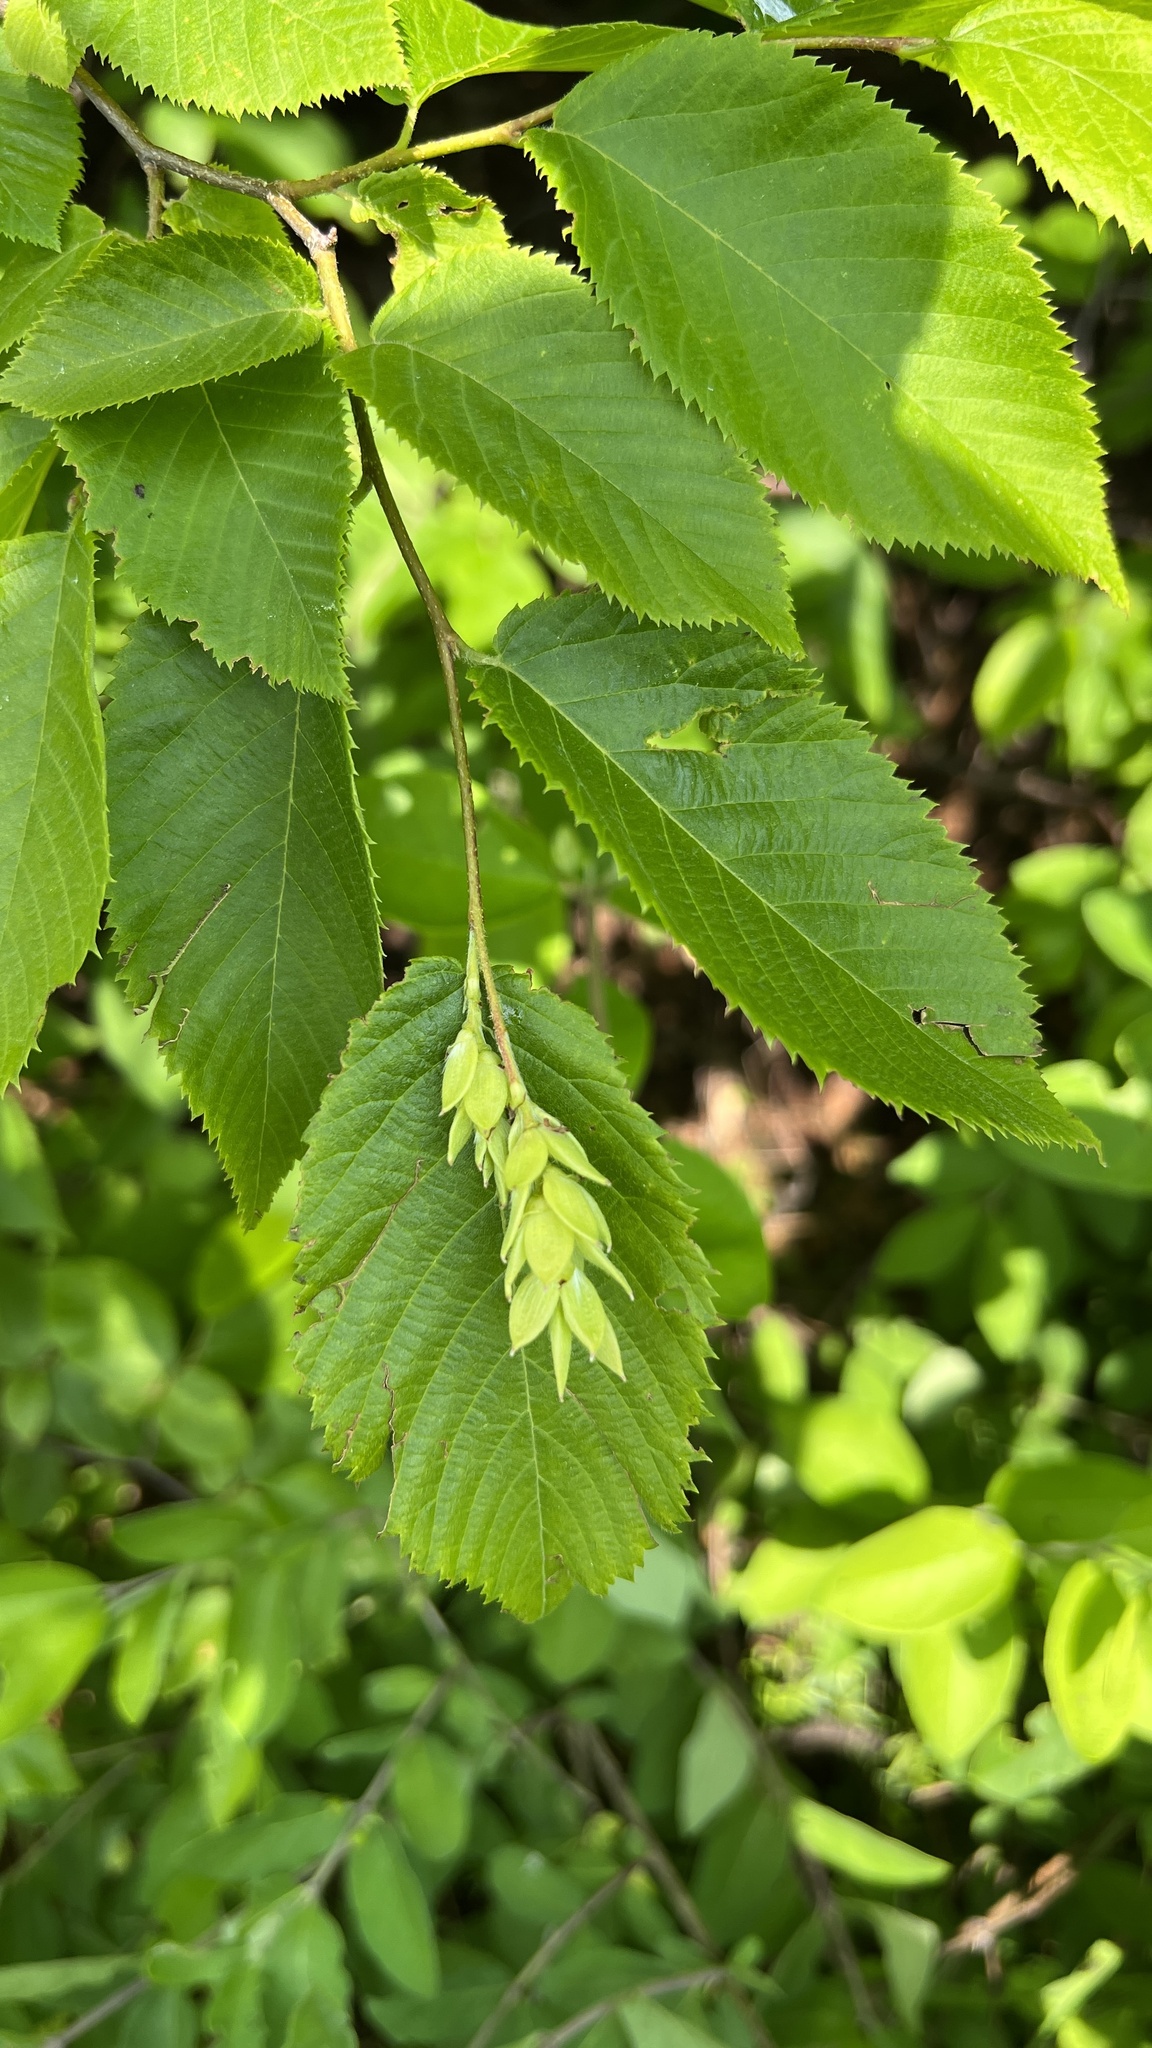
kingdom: Plantae
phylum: Tracheophyta
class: Magnoliopsida
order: Fagales
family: Betulaceae
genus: Ostrya
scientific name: Ostrya virginiana
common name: Ironwood
